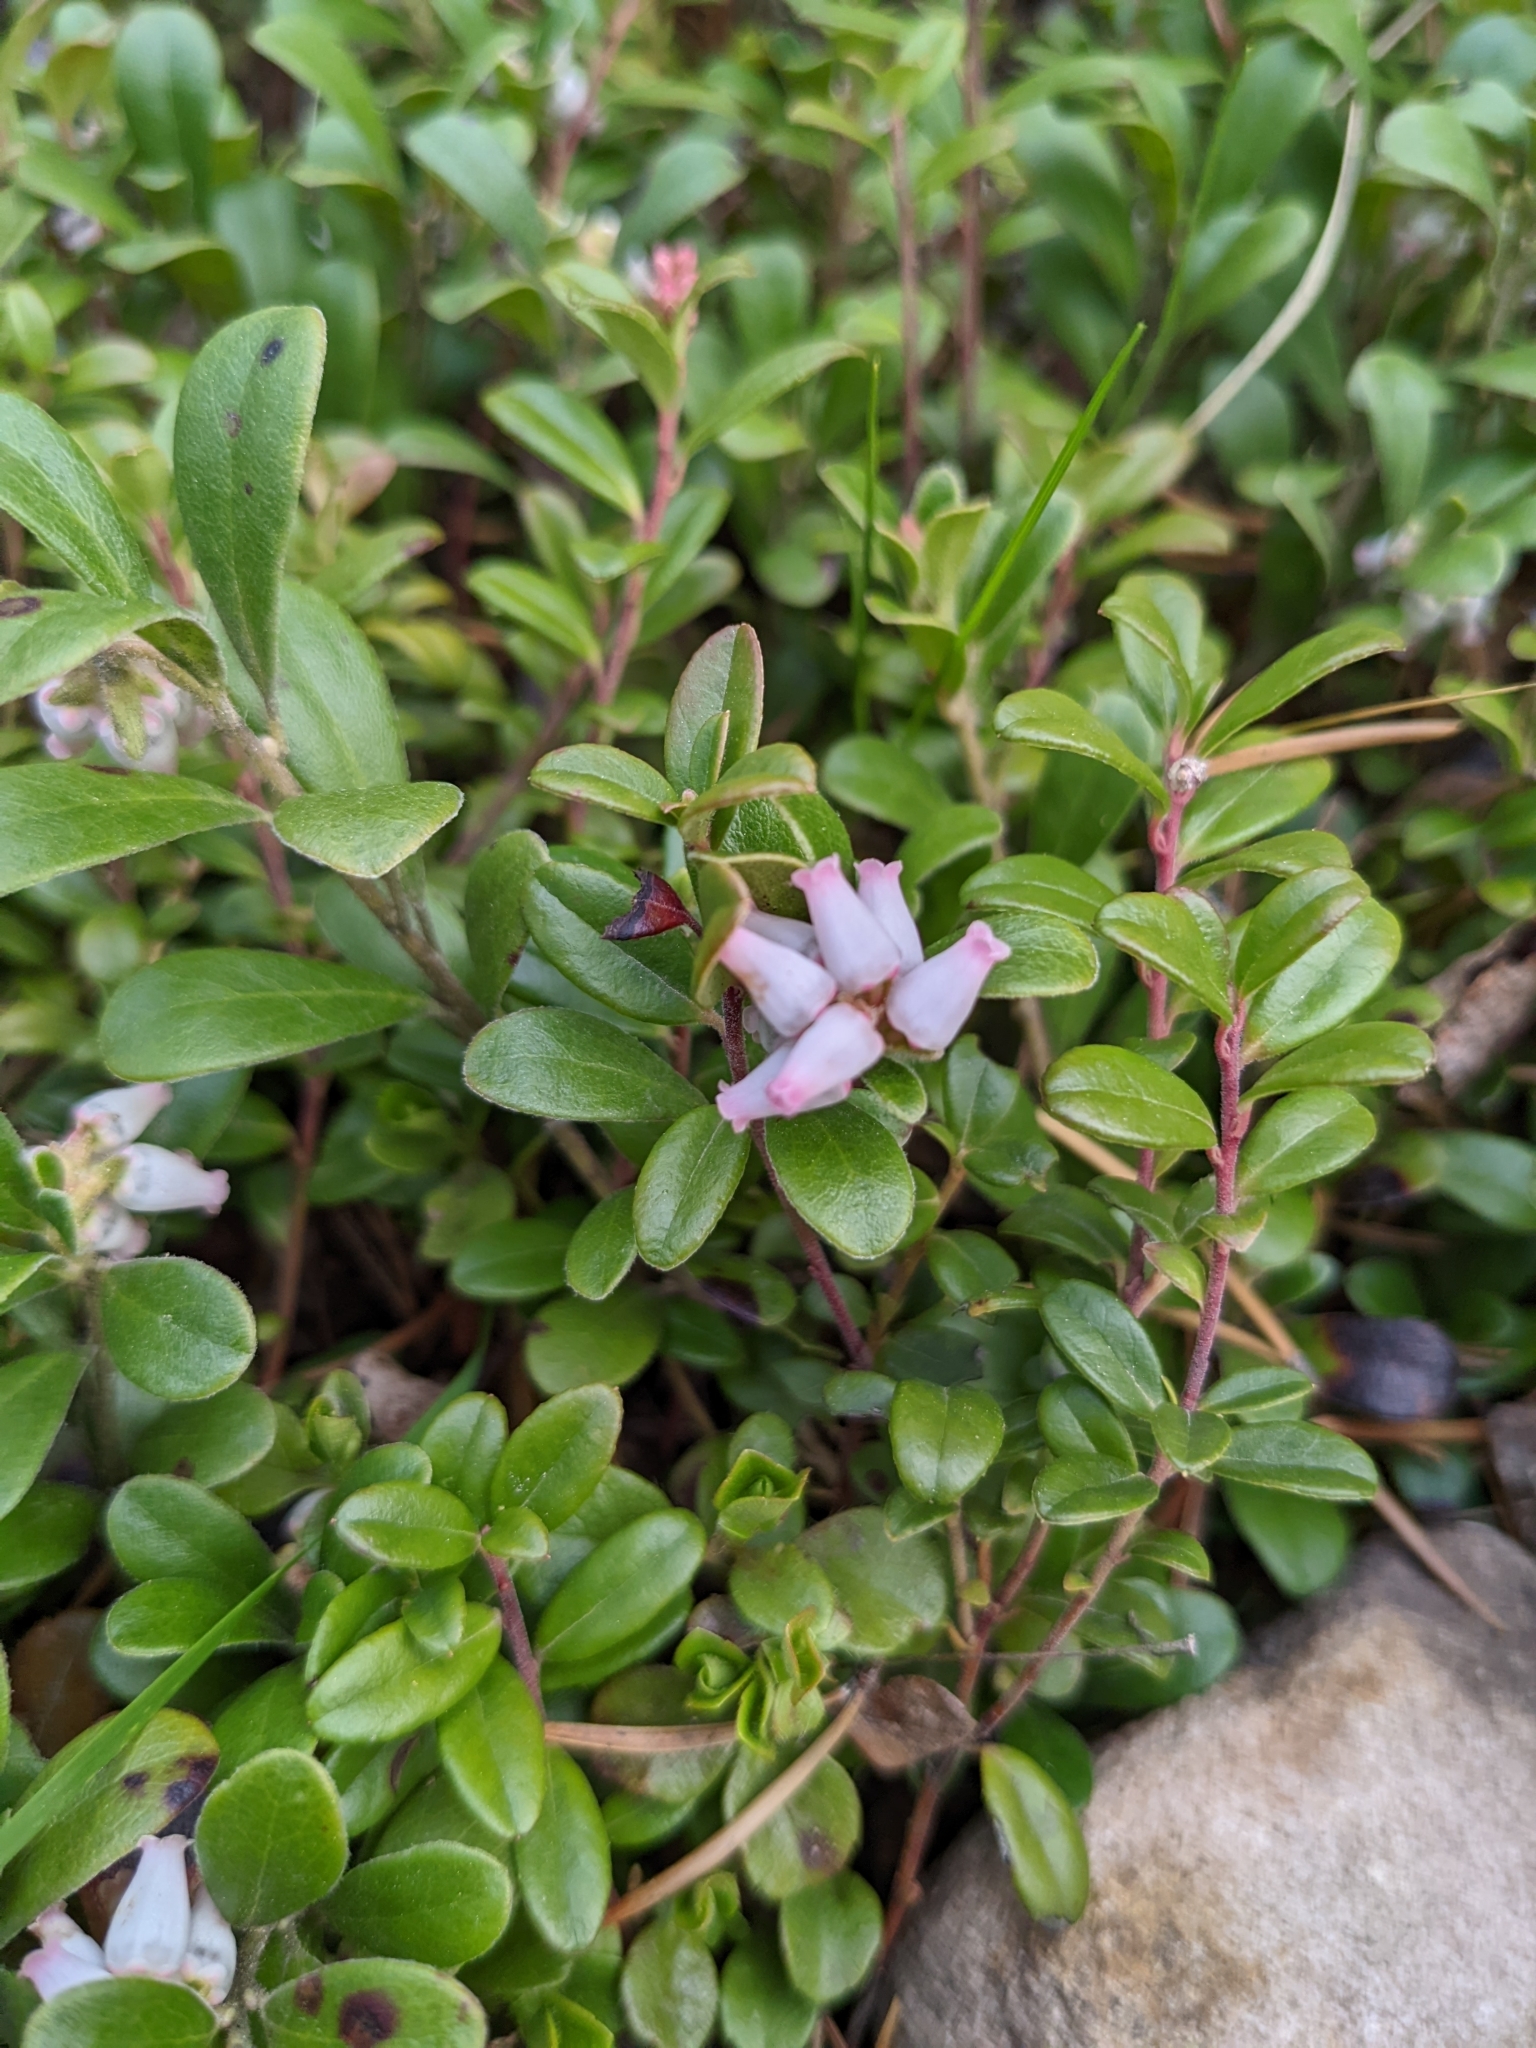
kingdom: Plantae
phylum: Tracheophyta
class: Magnoliopsida
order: Ericales
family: Ericaceae
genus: Arctostaphylos
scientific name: Arctostaphylos uva-ursi
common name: Bearberry
